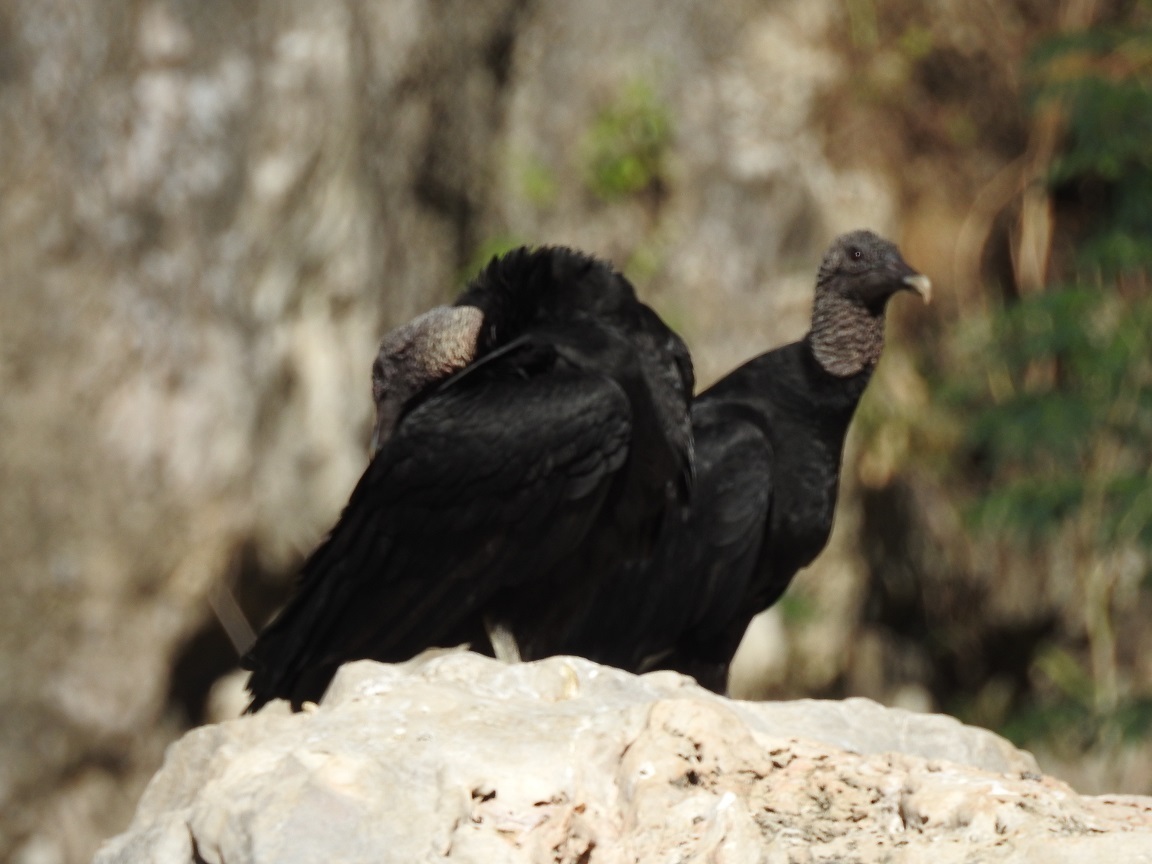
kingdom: Animalia
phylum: Chordata
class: Aves
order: Accipitriformes
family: Cathartidae
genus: Coragyps
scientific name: Coragyps atratus
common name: Black vulture
